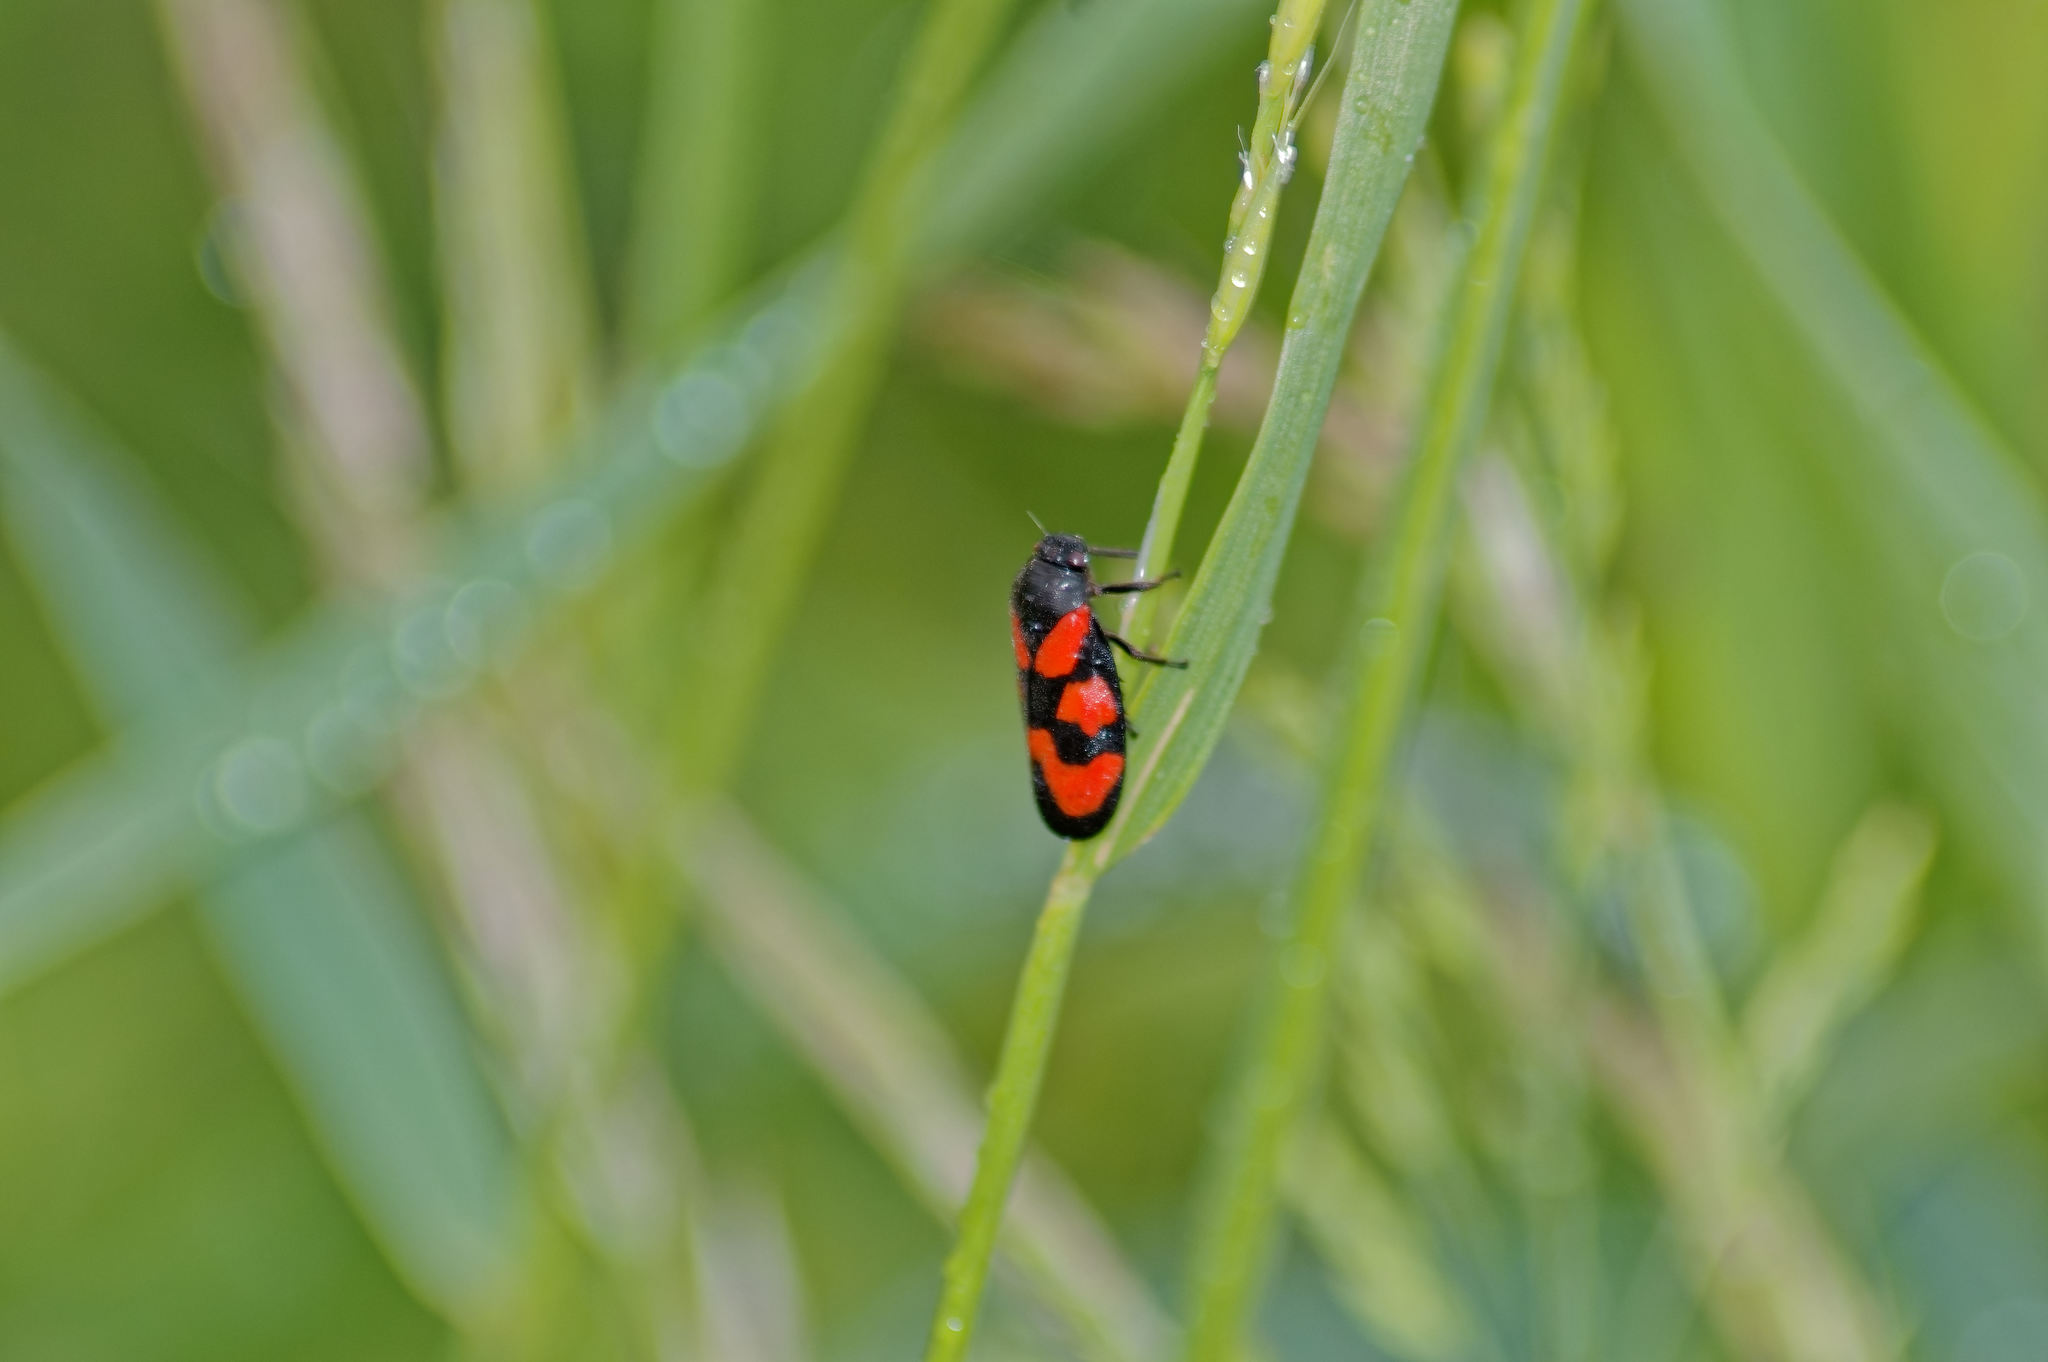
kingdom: Animalia
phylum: Arthropoda
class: Insecta
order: Hemiptera
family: Cercopidae
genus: Cercopis
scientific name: Cercopis vulnerata
